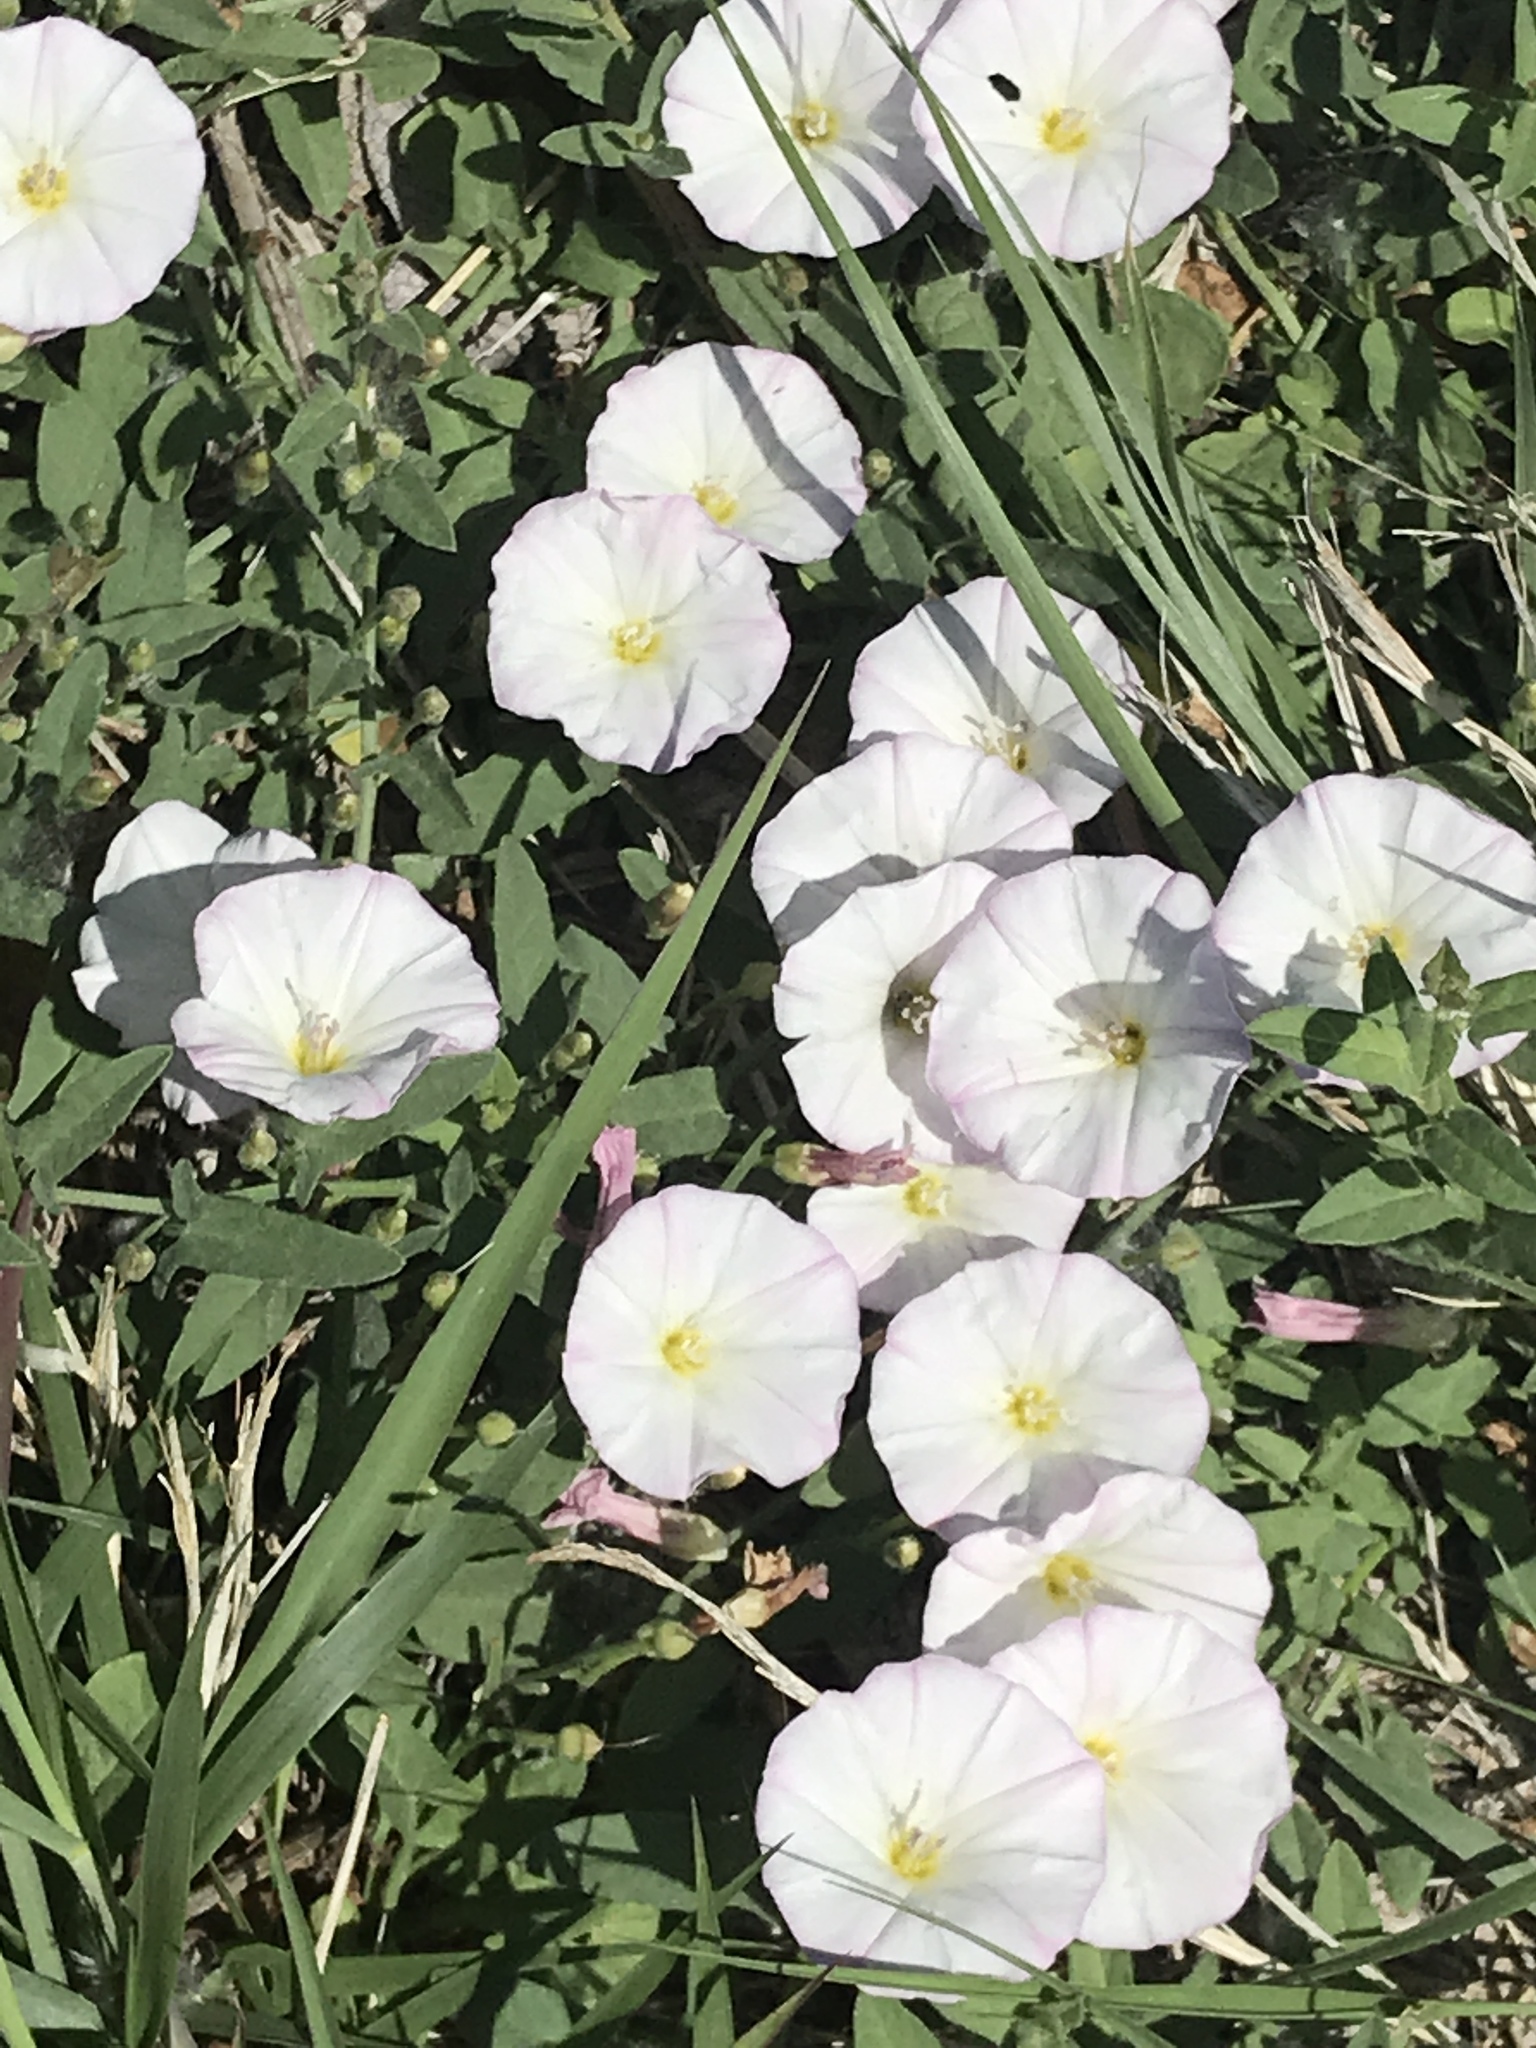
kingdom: Plantae
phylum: Tracheophyta
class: Magnoliopsida
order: Solanales
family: Convolvulaceae
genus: Convolvulus
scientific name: Convolvulus arvensis
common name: Field bindweed
